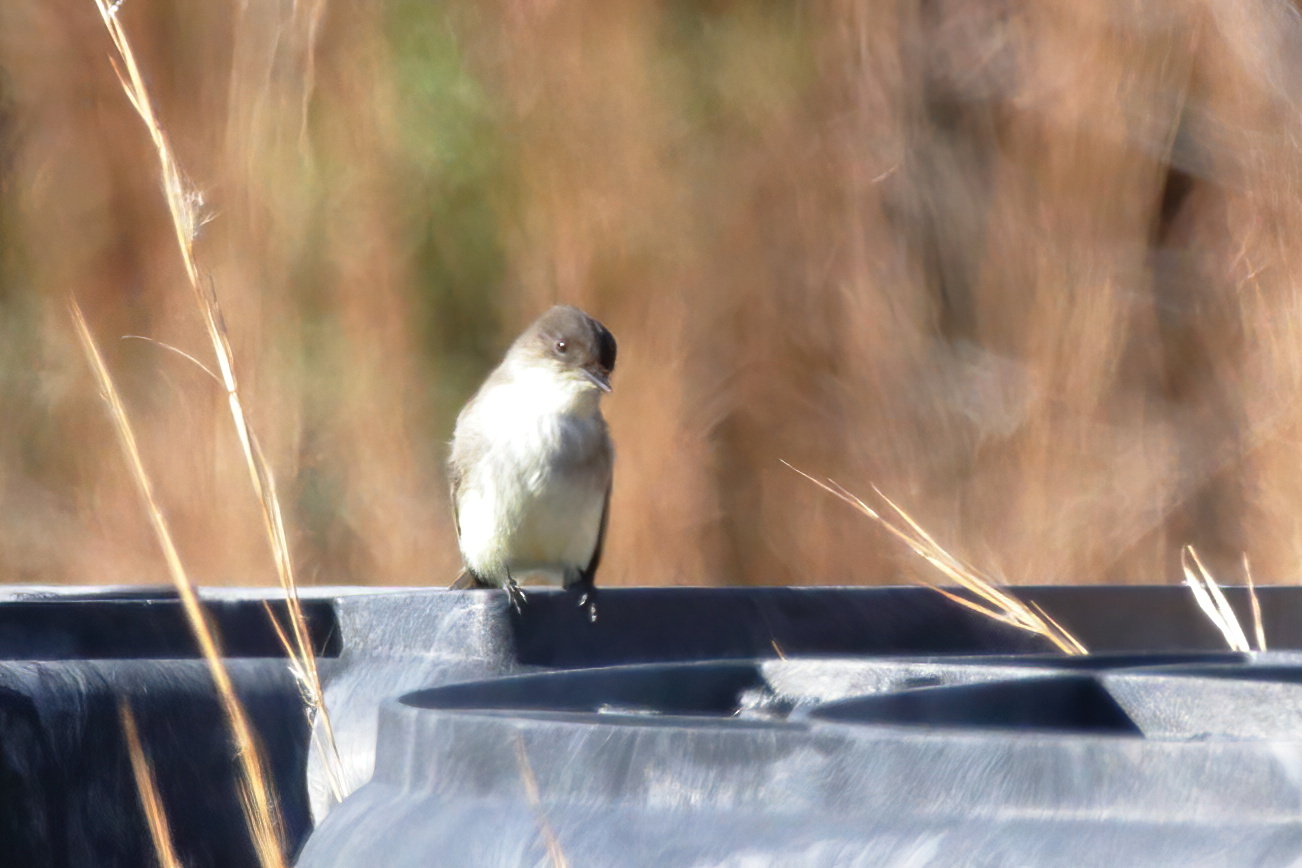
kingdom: Animalia
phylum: Chordata
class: Aves
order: Passeriformes
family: Tyrannidae
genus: Sayornis
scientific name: Sayornis phoebe
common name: Eastern phoebe
